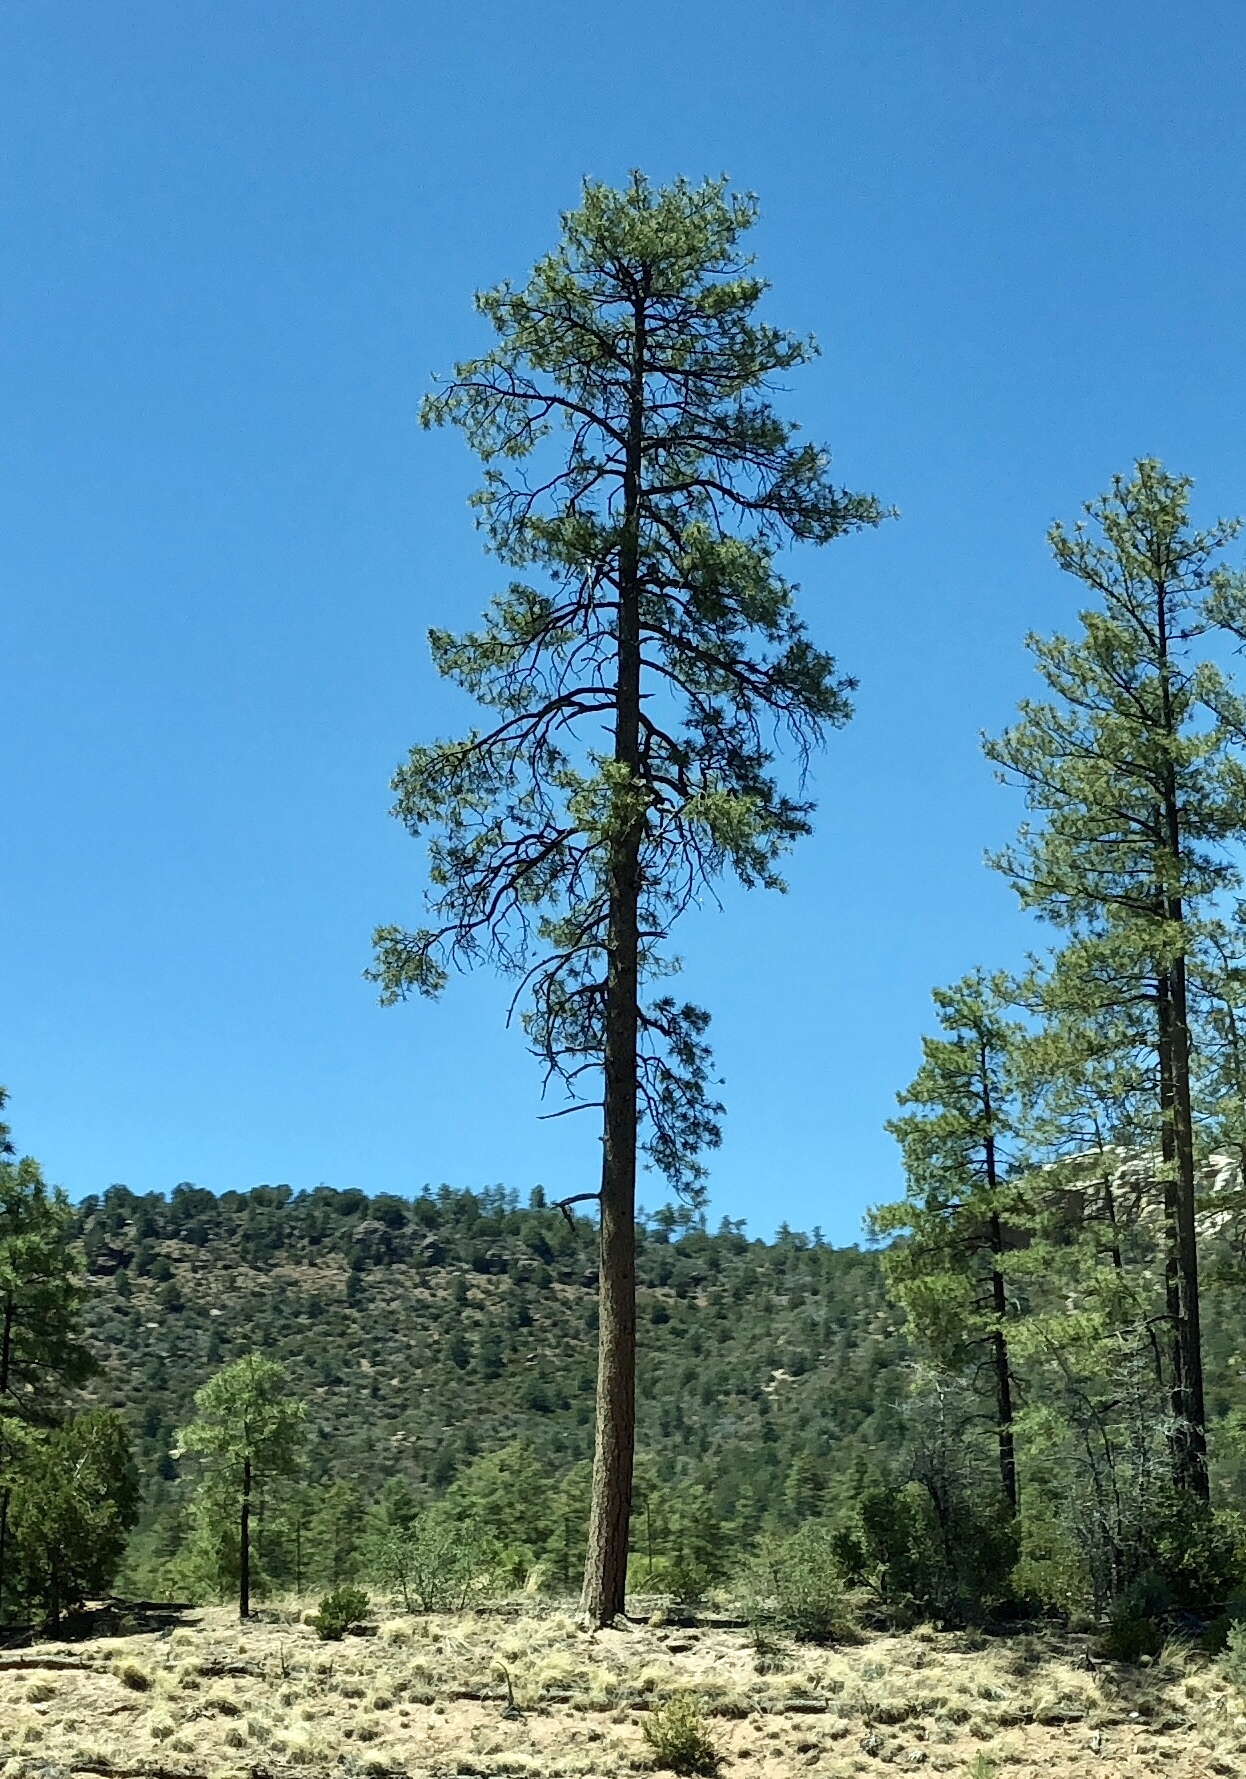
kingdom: Plantae
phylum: Tracheophyta
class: Pinopsida
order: Pinales
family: Pinaceae
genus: Pinus
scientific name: Pinus ponderosa
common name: Western yellow-pine
